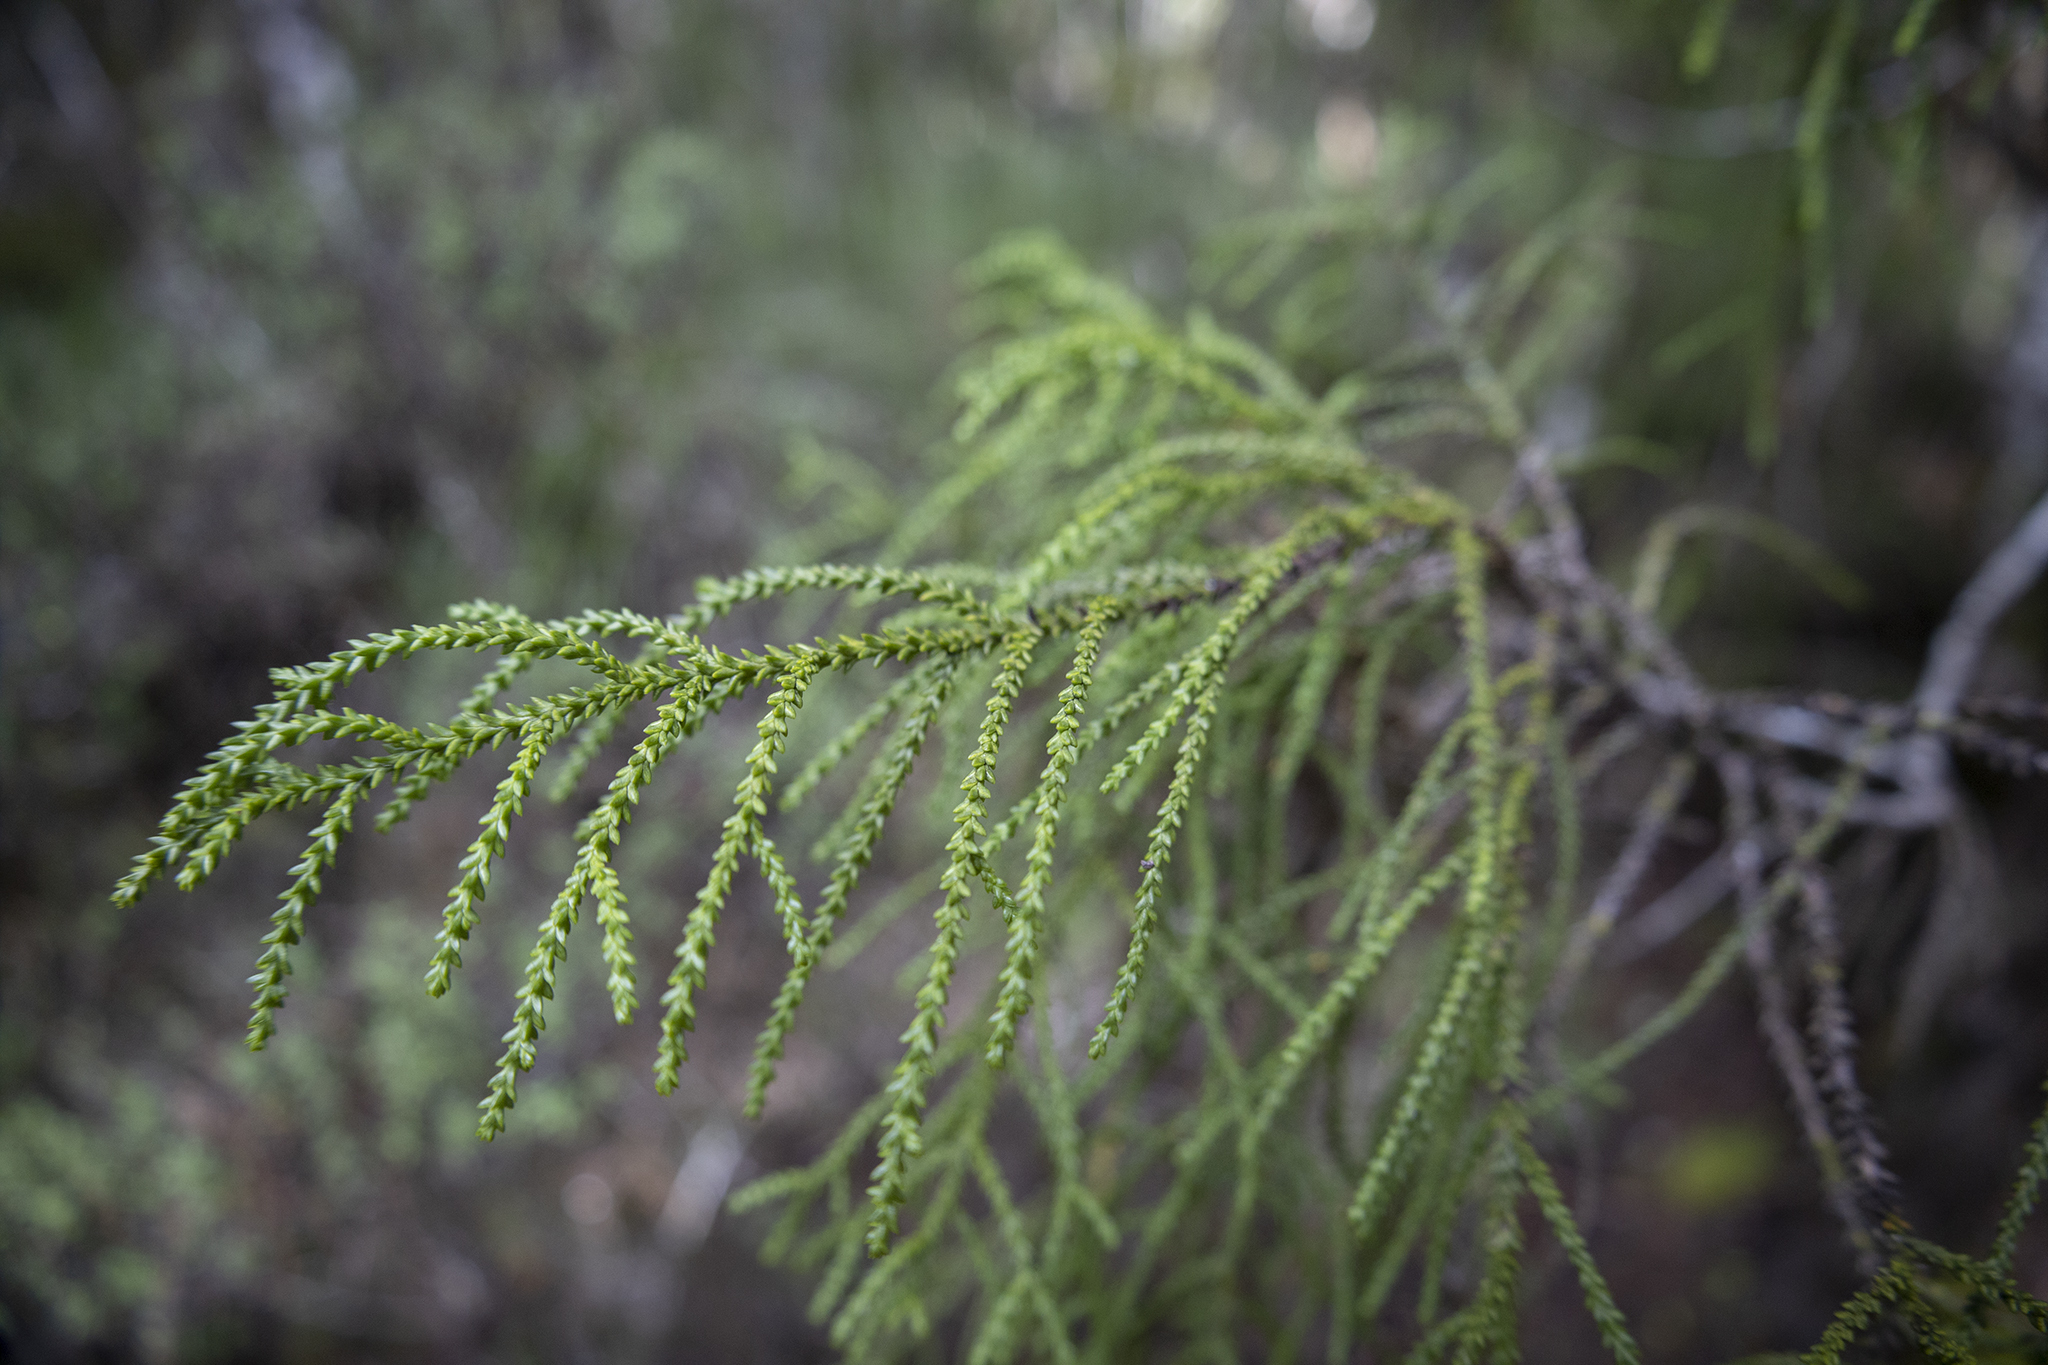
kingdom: Plantae
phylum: Tracheophyta
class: Pinopsida
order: Pinales
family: Podocarpaceae
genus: Lepidothamnus
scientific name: Lepidothamnus intermedius
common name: Yellow silver pine
